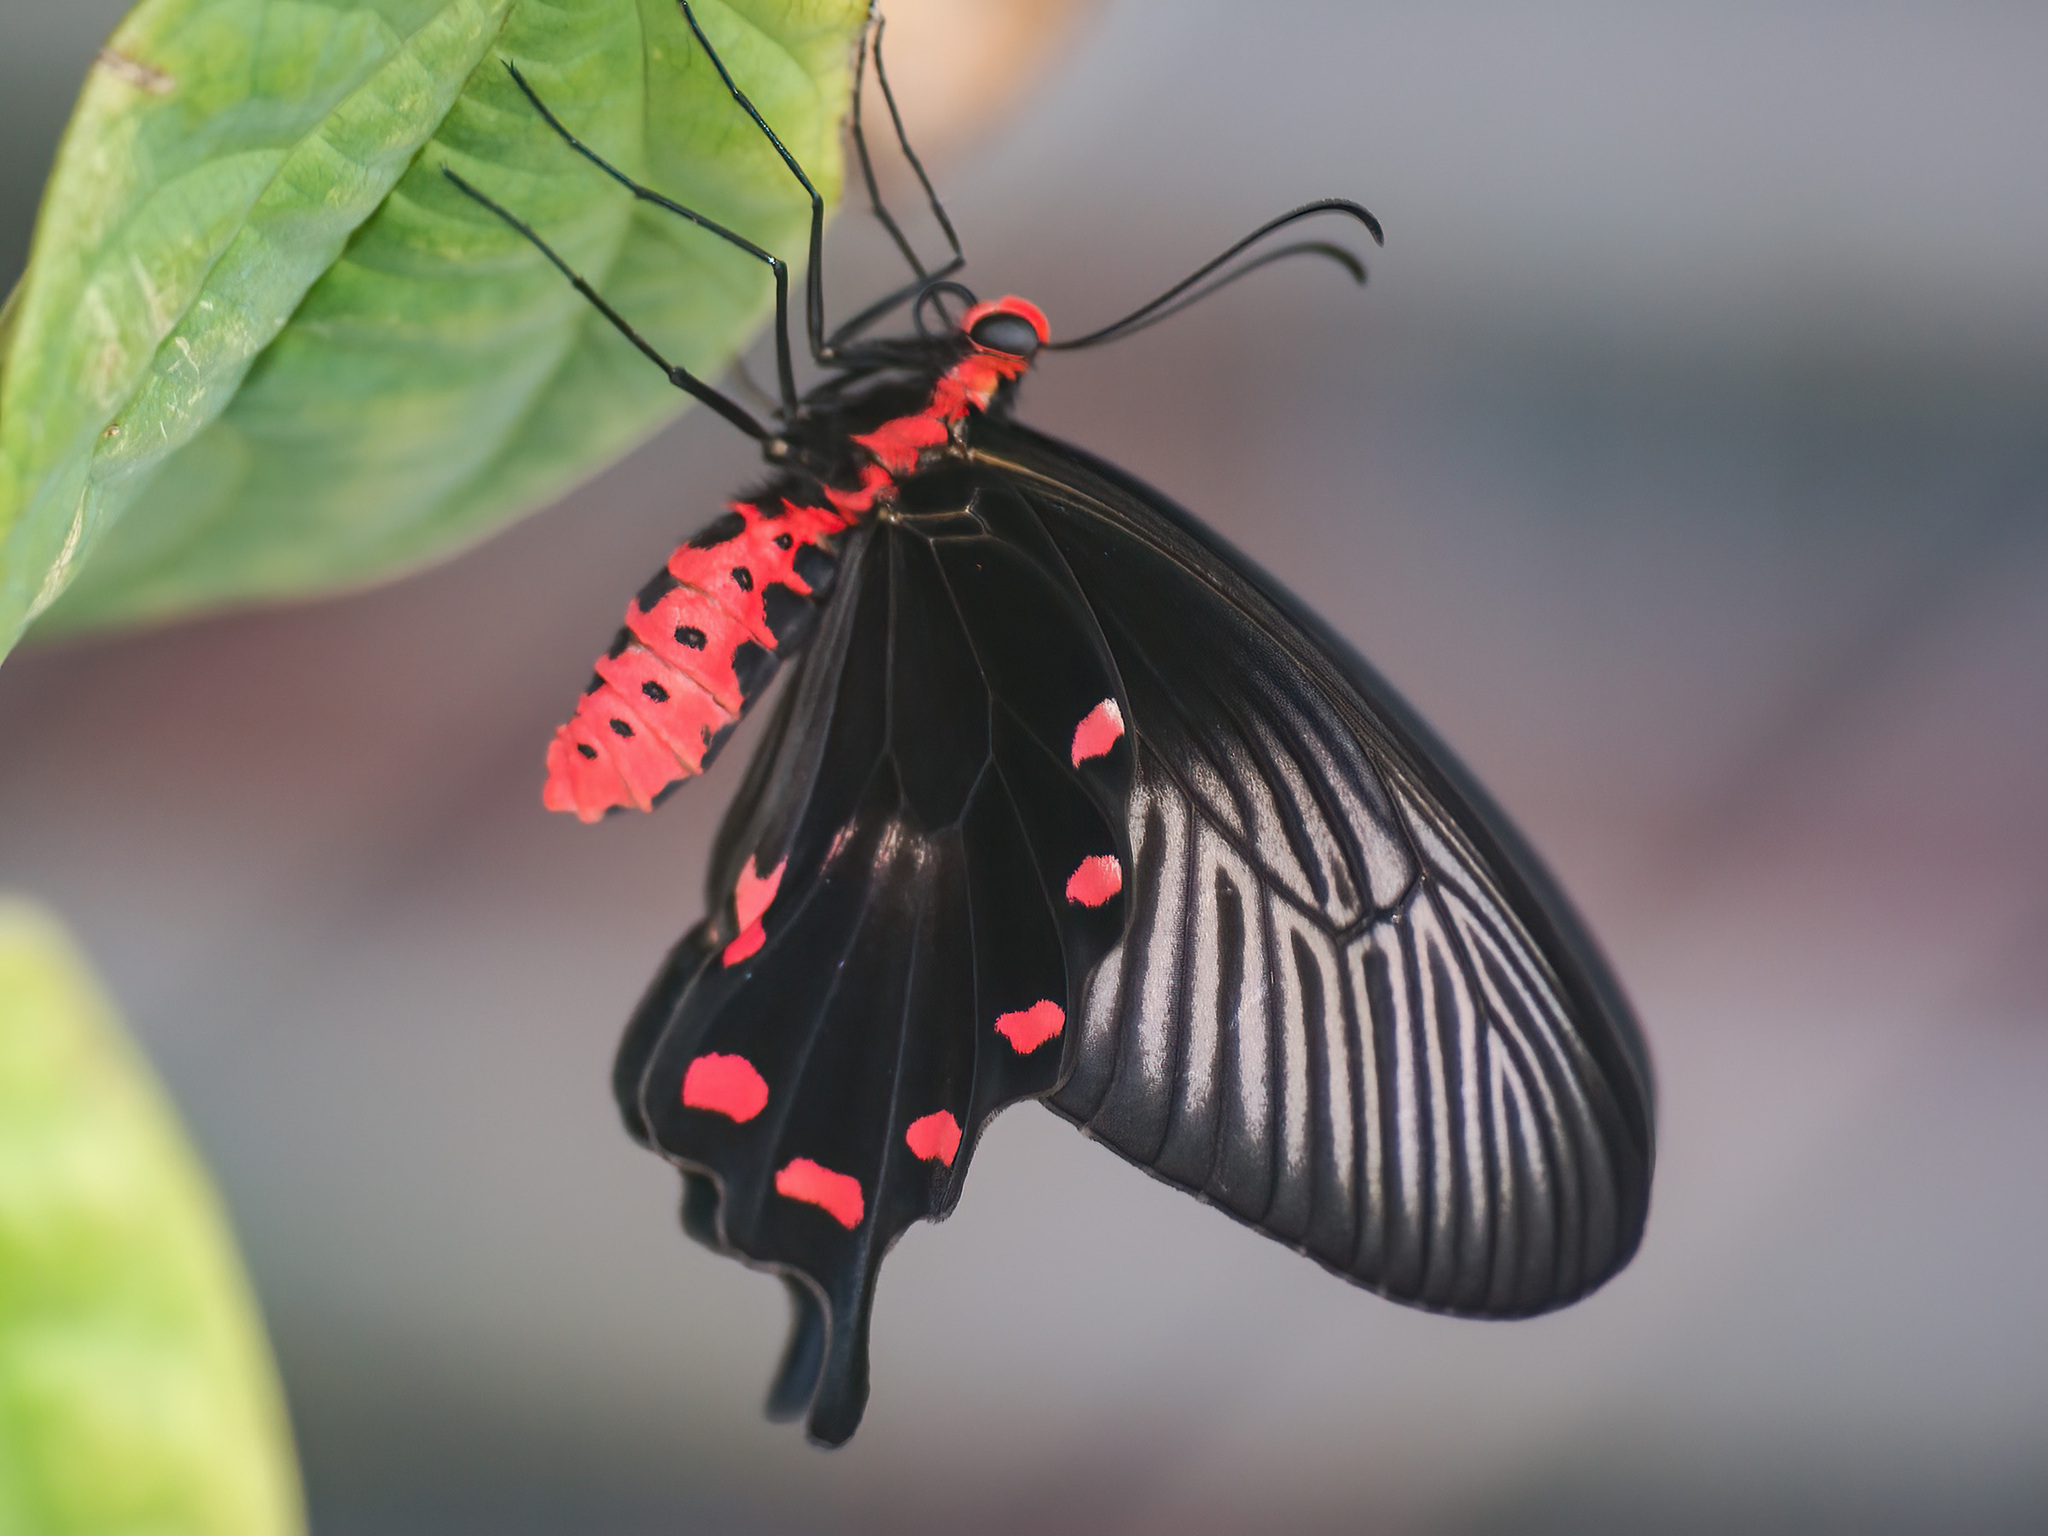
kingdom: Animalia
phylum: Arthropoda
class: Insecta
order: Lepidoptera
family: Papilionidae
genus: Pachliopta
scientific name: Pachliopta aristolochiae
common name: Common rose
